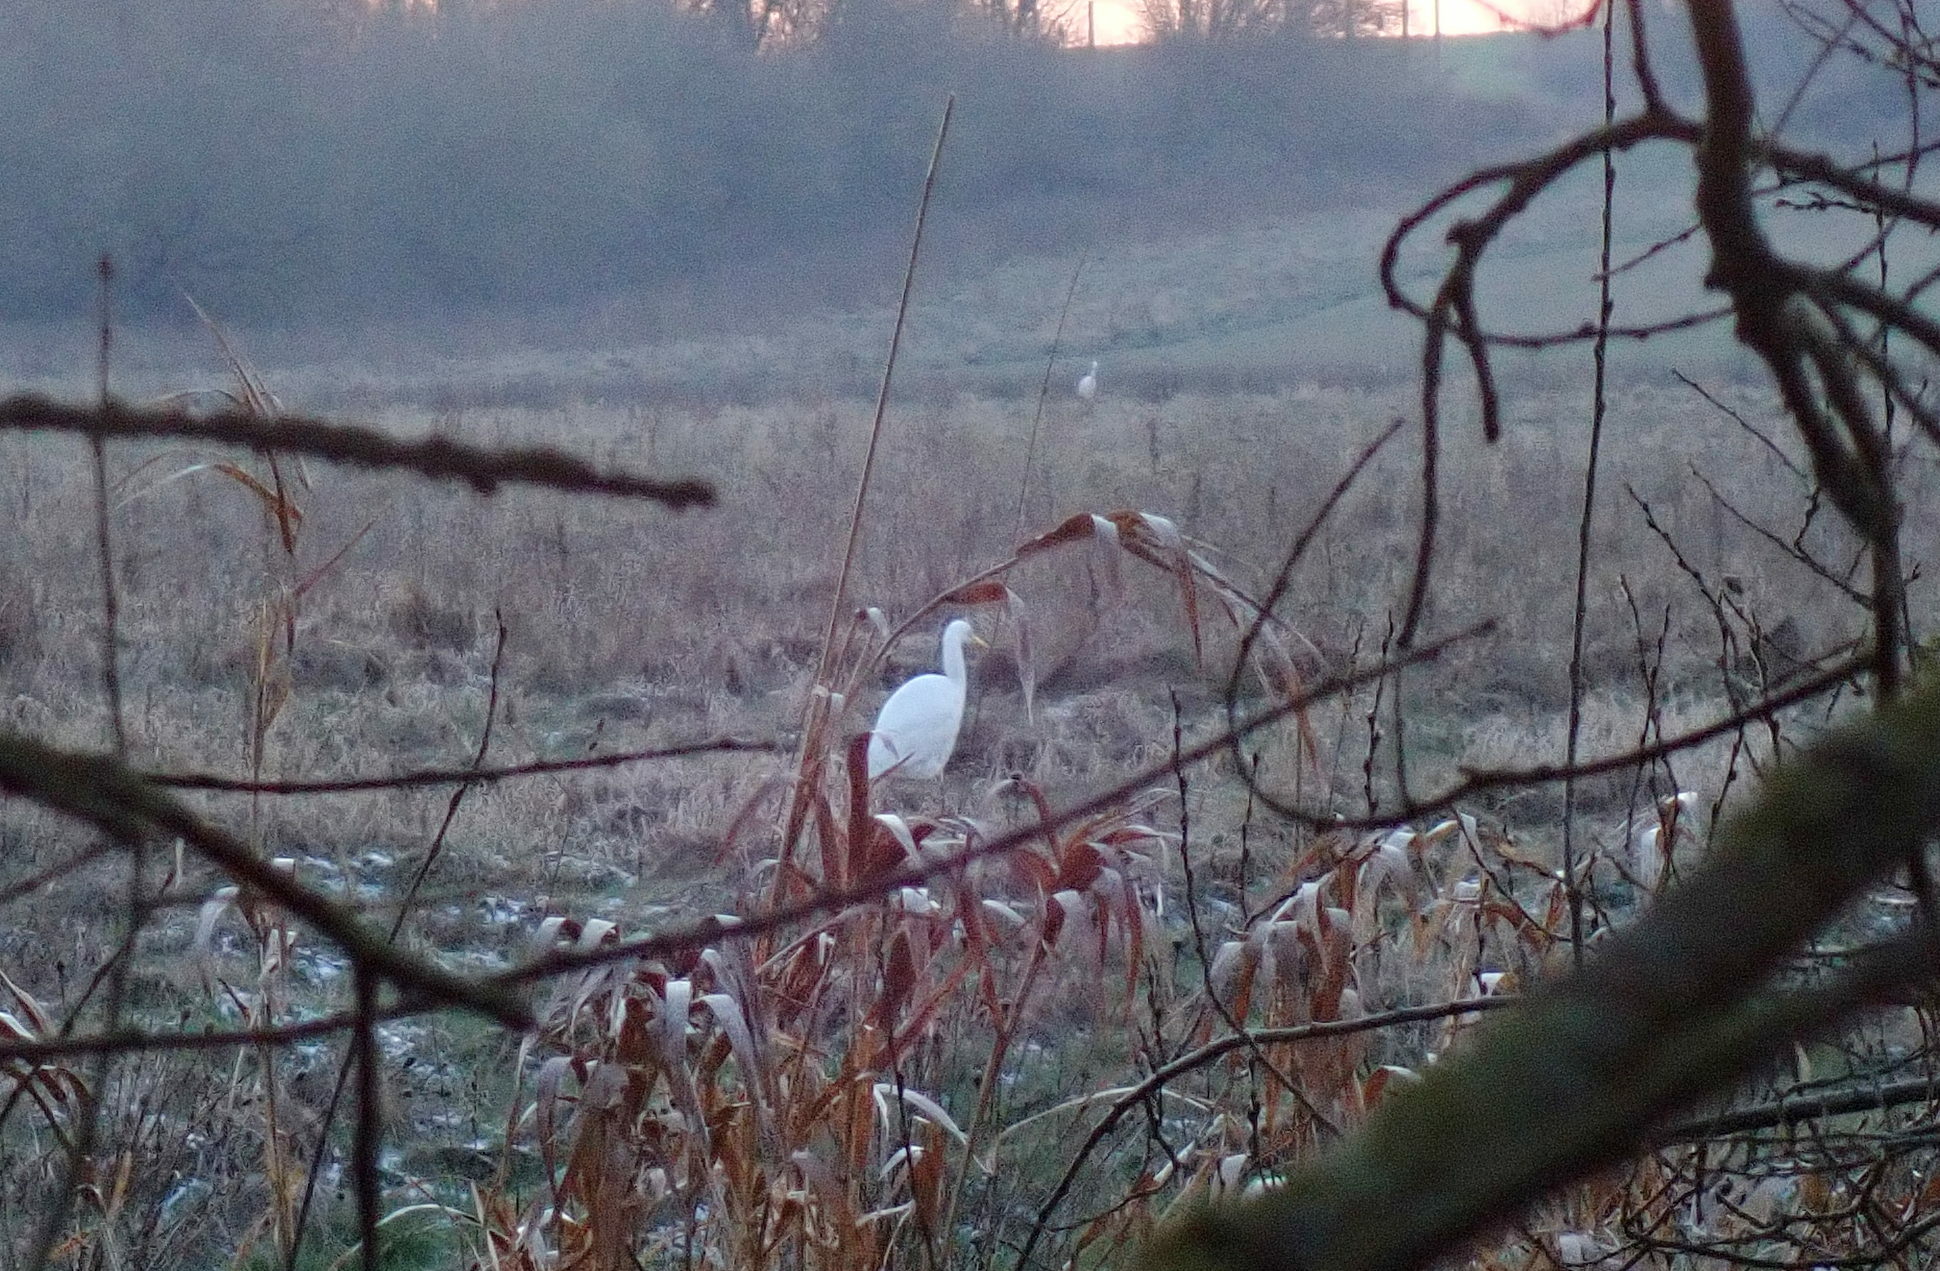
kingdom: Animalia
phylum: Chordata
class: Aves
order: Pelecaniformes
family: Ardeidae
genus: Ardea
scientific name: Ardea alba
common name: Great egret
